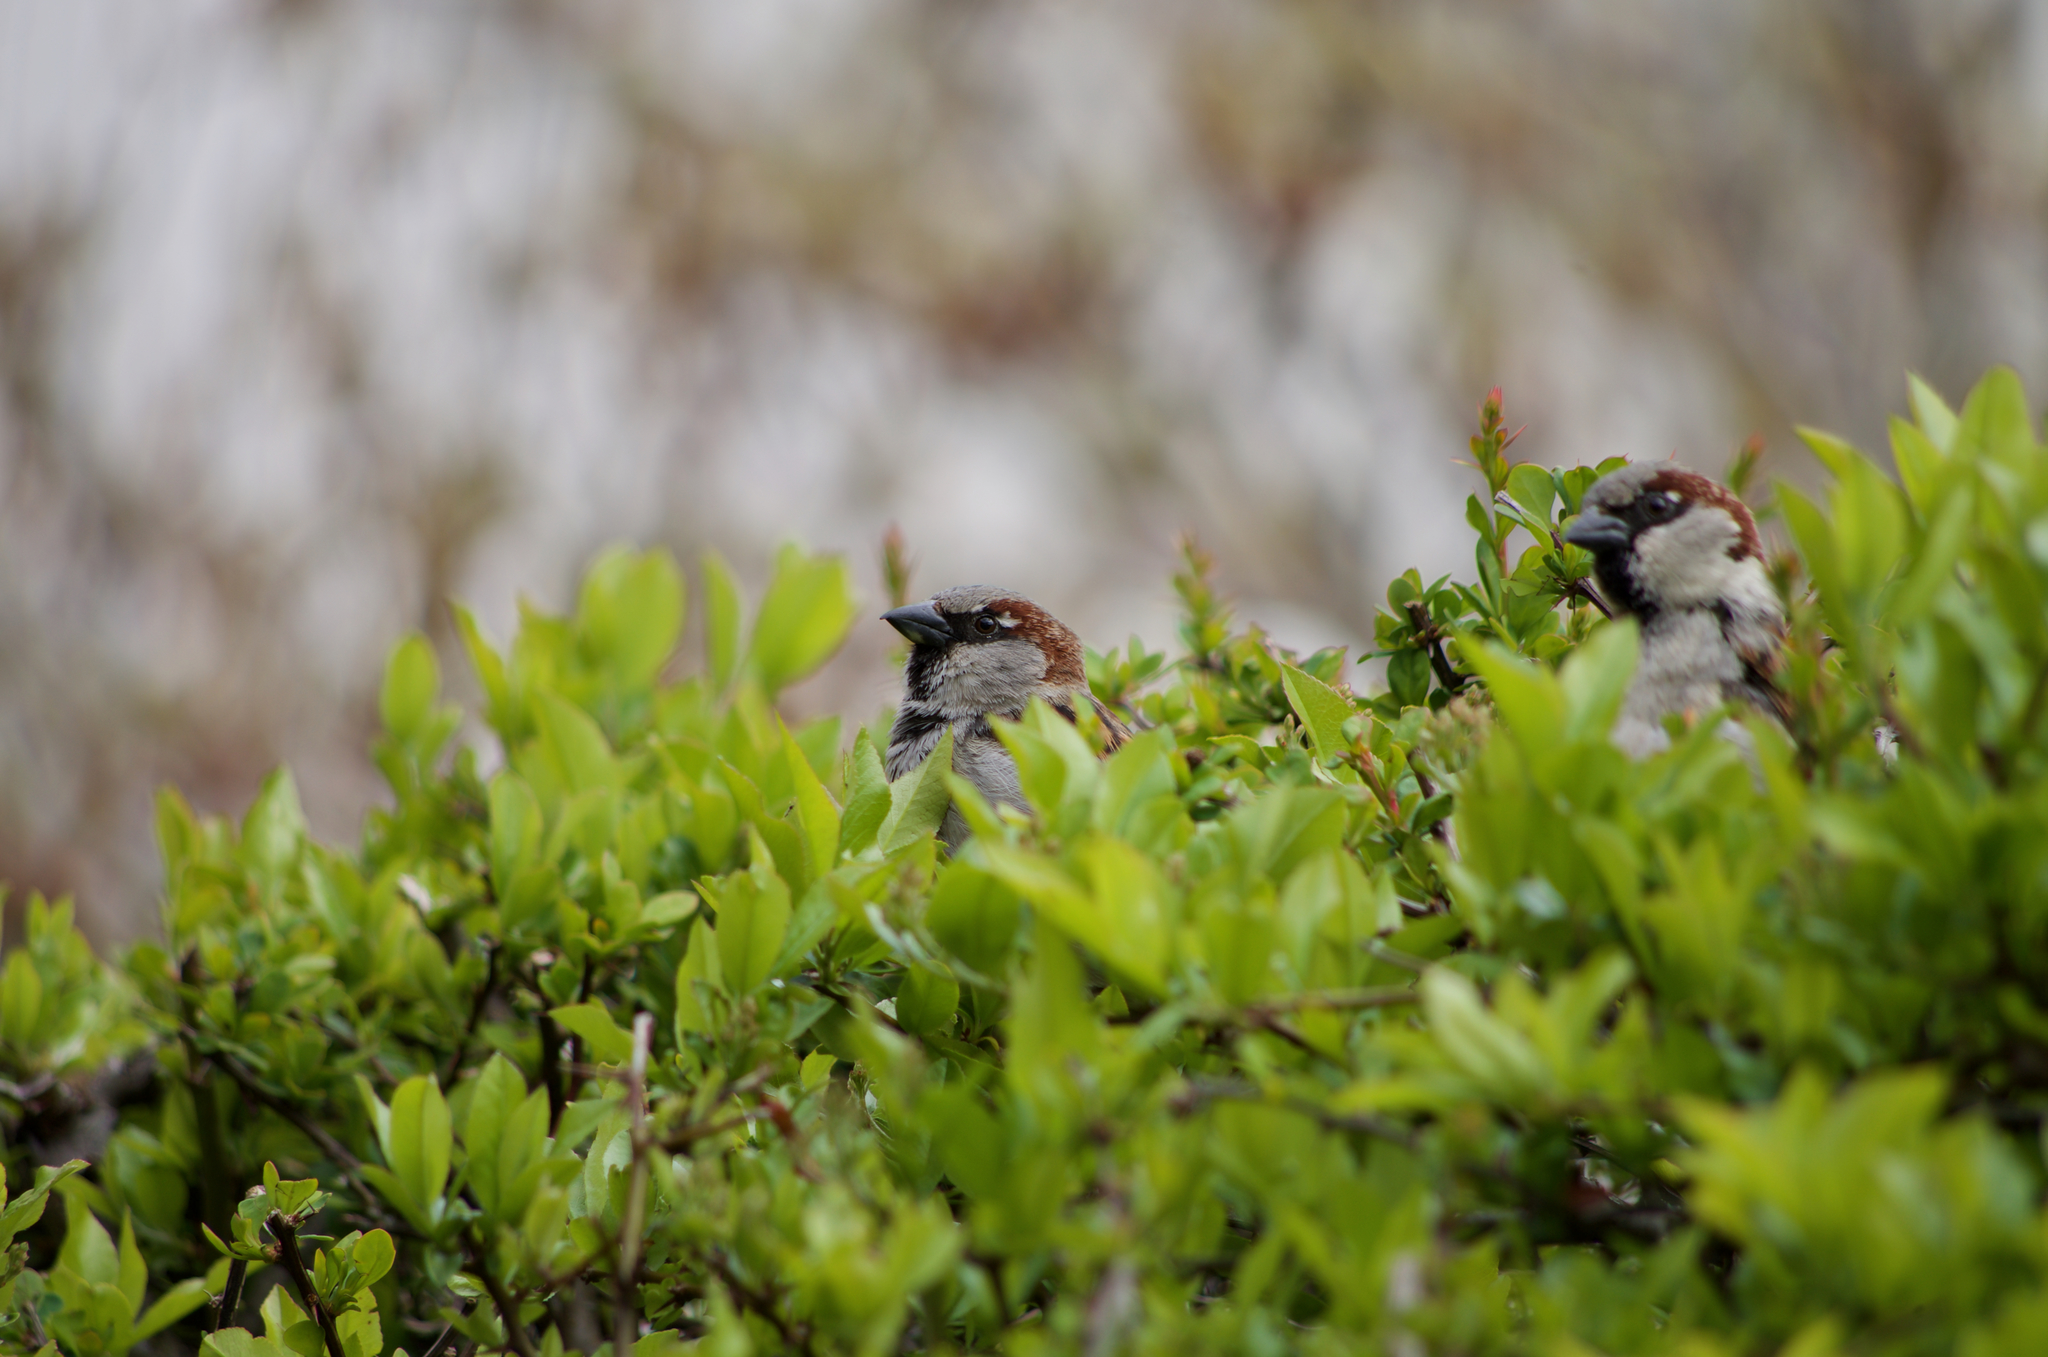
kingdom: Animalia
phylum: Chordata
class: Aves
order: Passeriformes
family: Passeridae
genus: Passer
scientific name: Passer domesticus
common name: House sparrow
